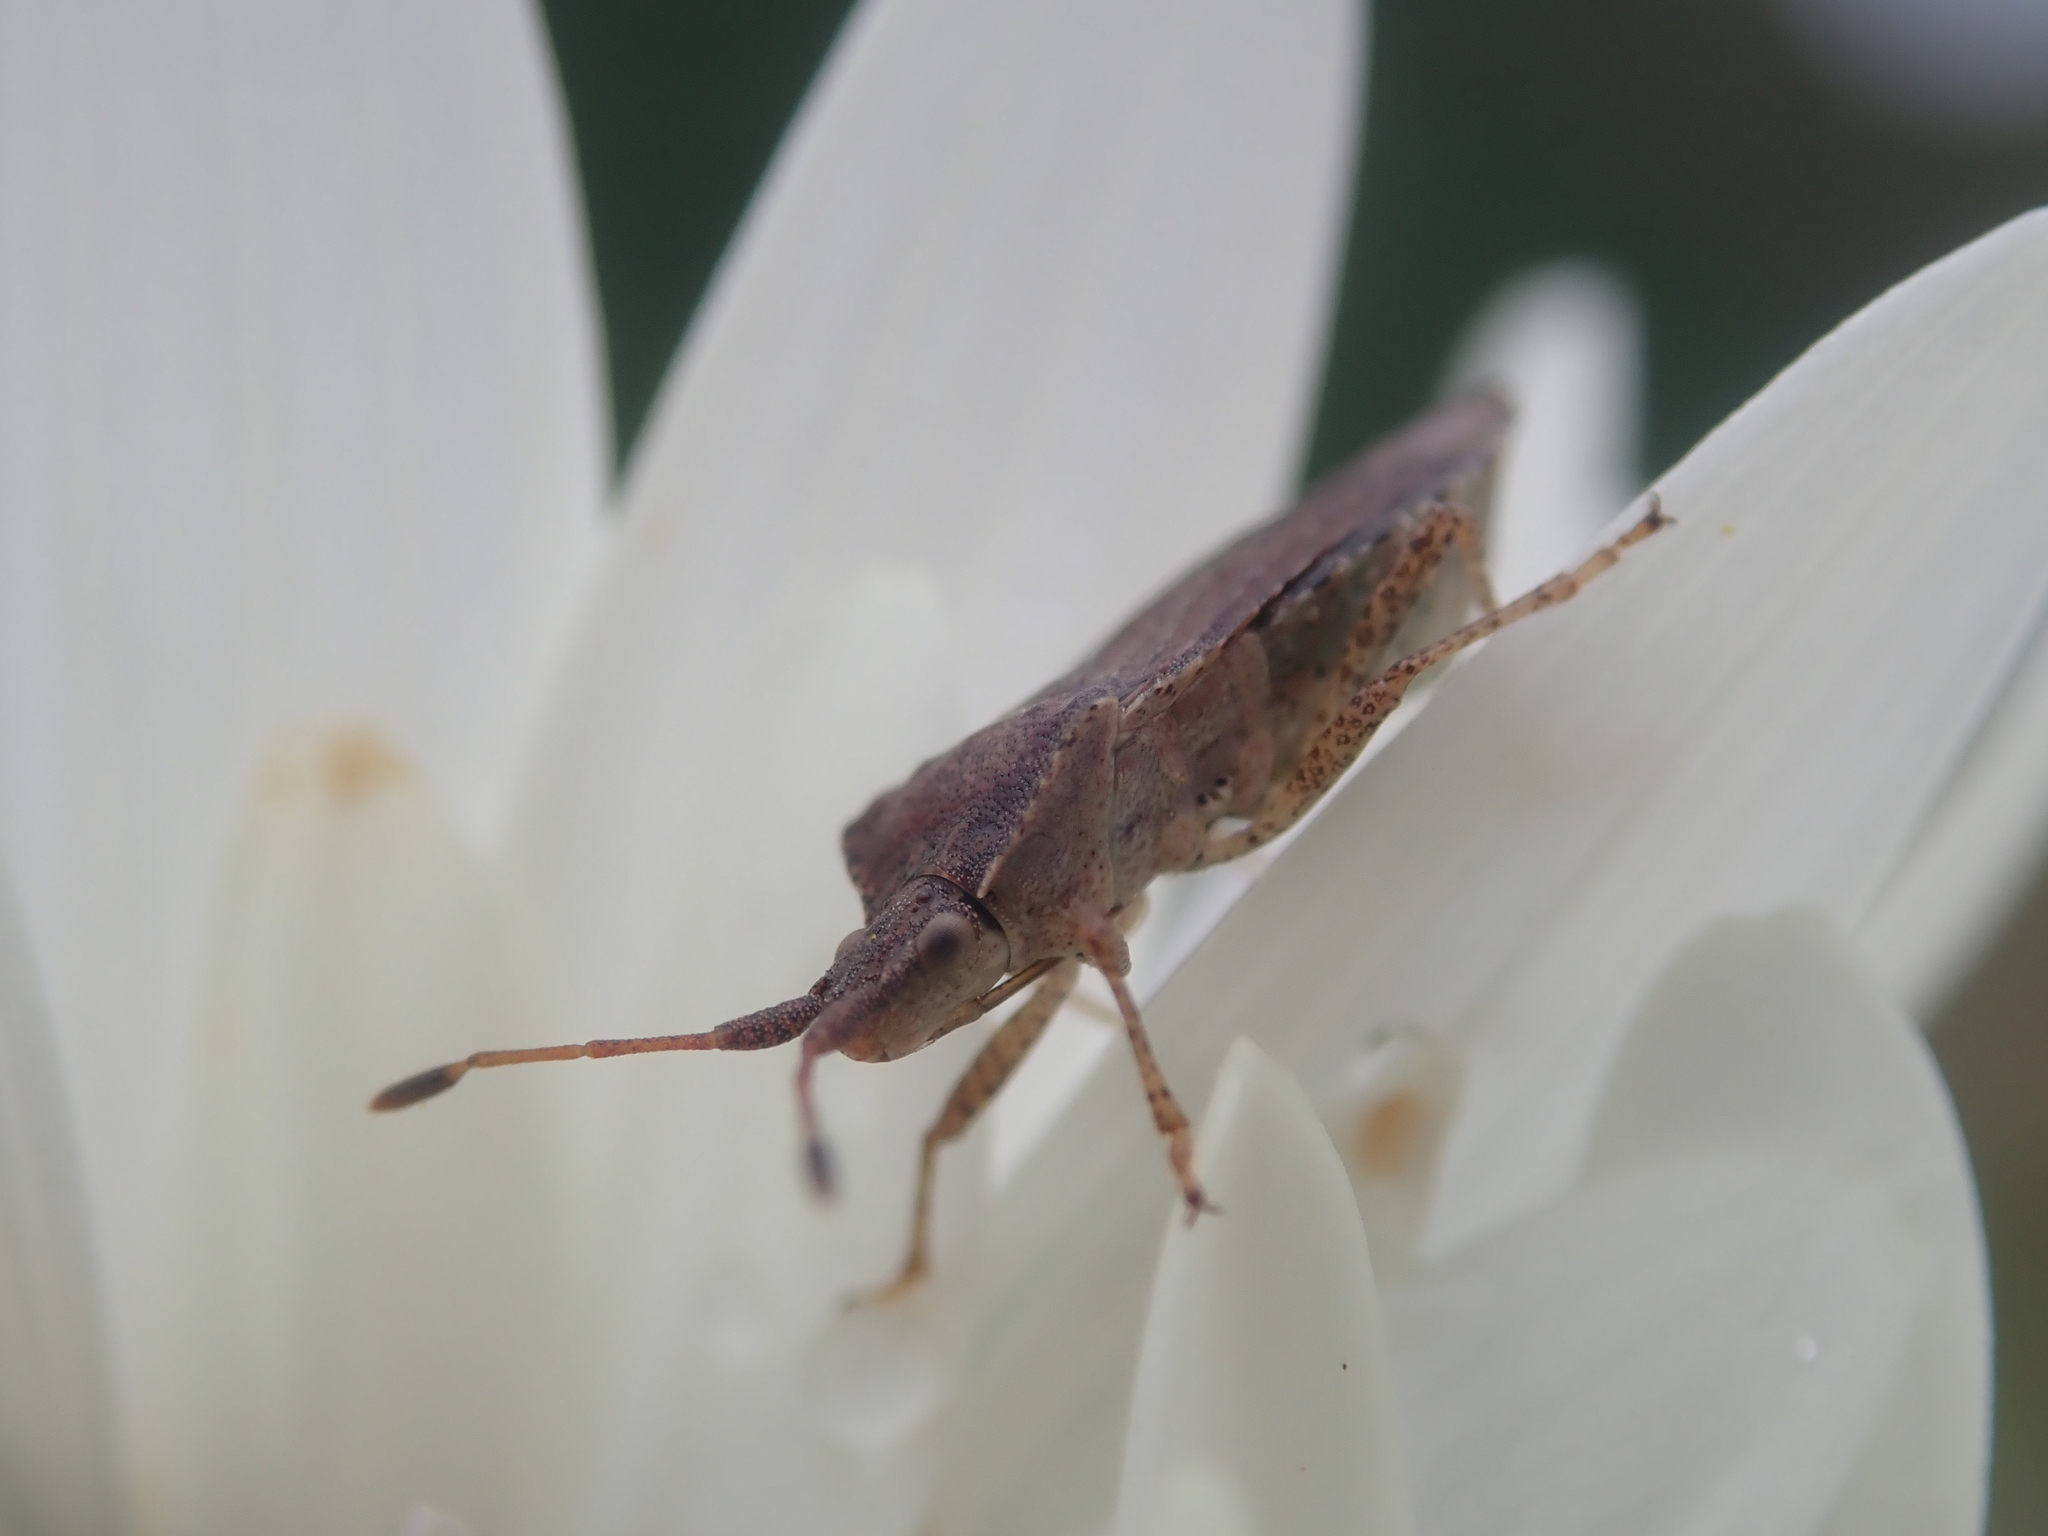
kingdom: Animalia
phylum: Arthropoda
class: Insecta
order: Hemiptera
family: Coreidae
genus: Althos
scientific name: Althos distinctus
